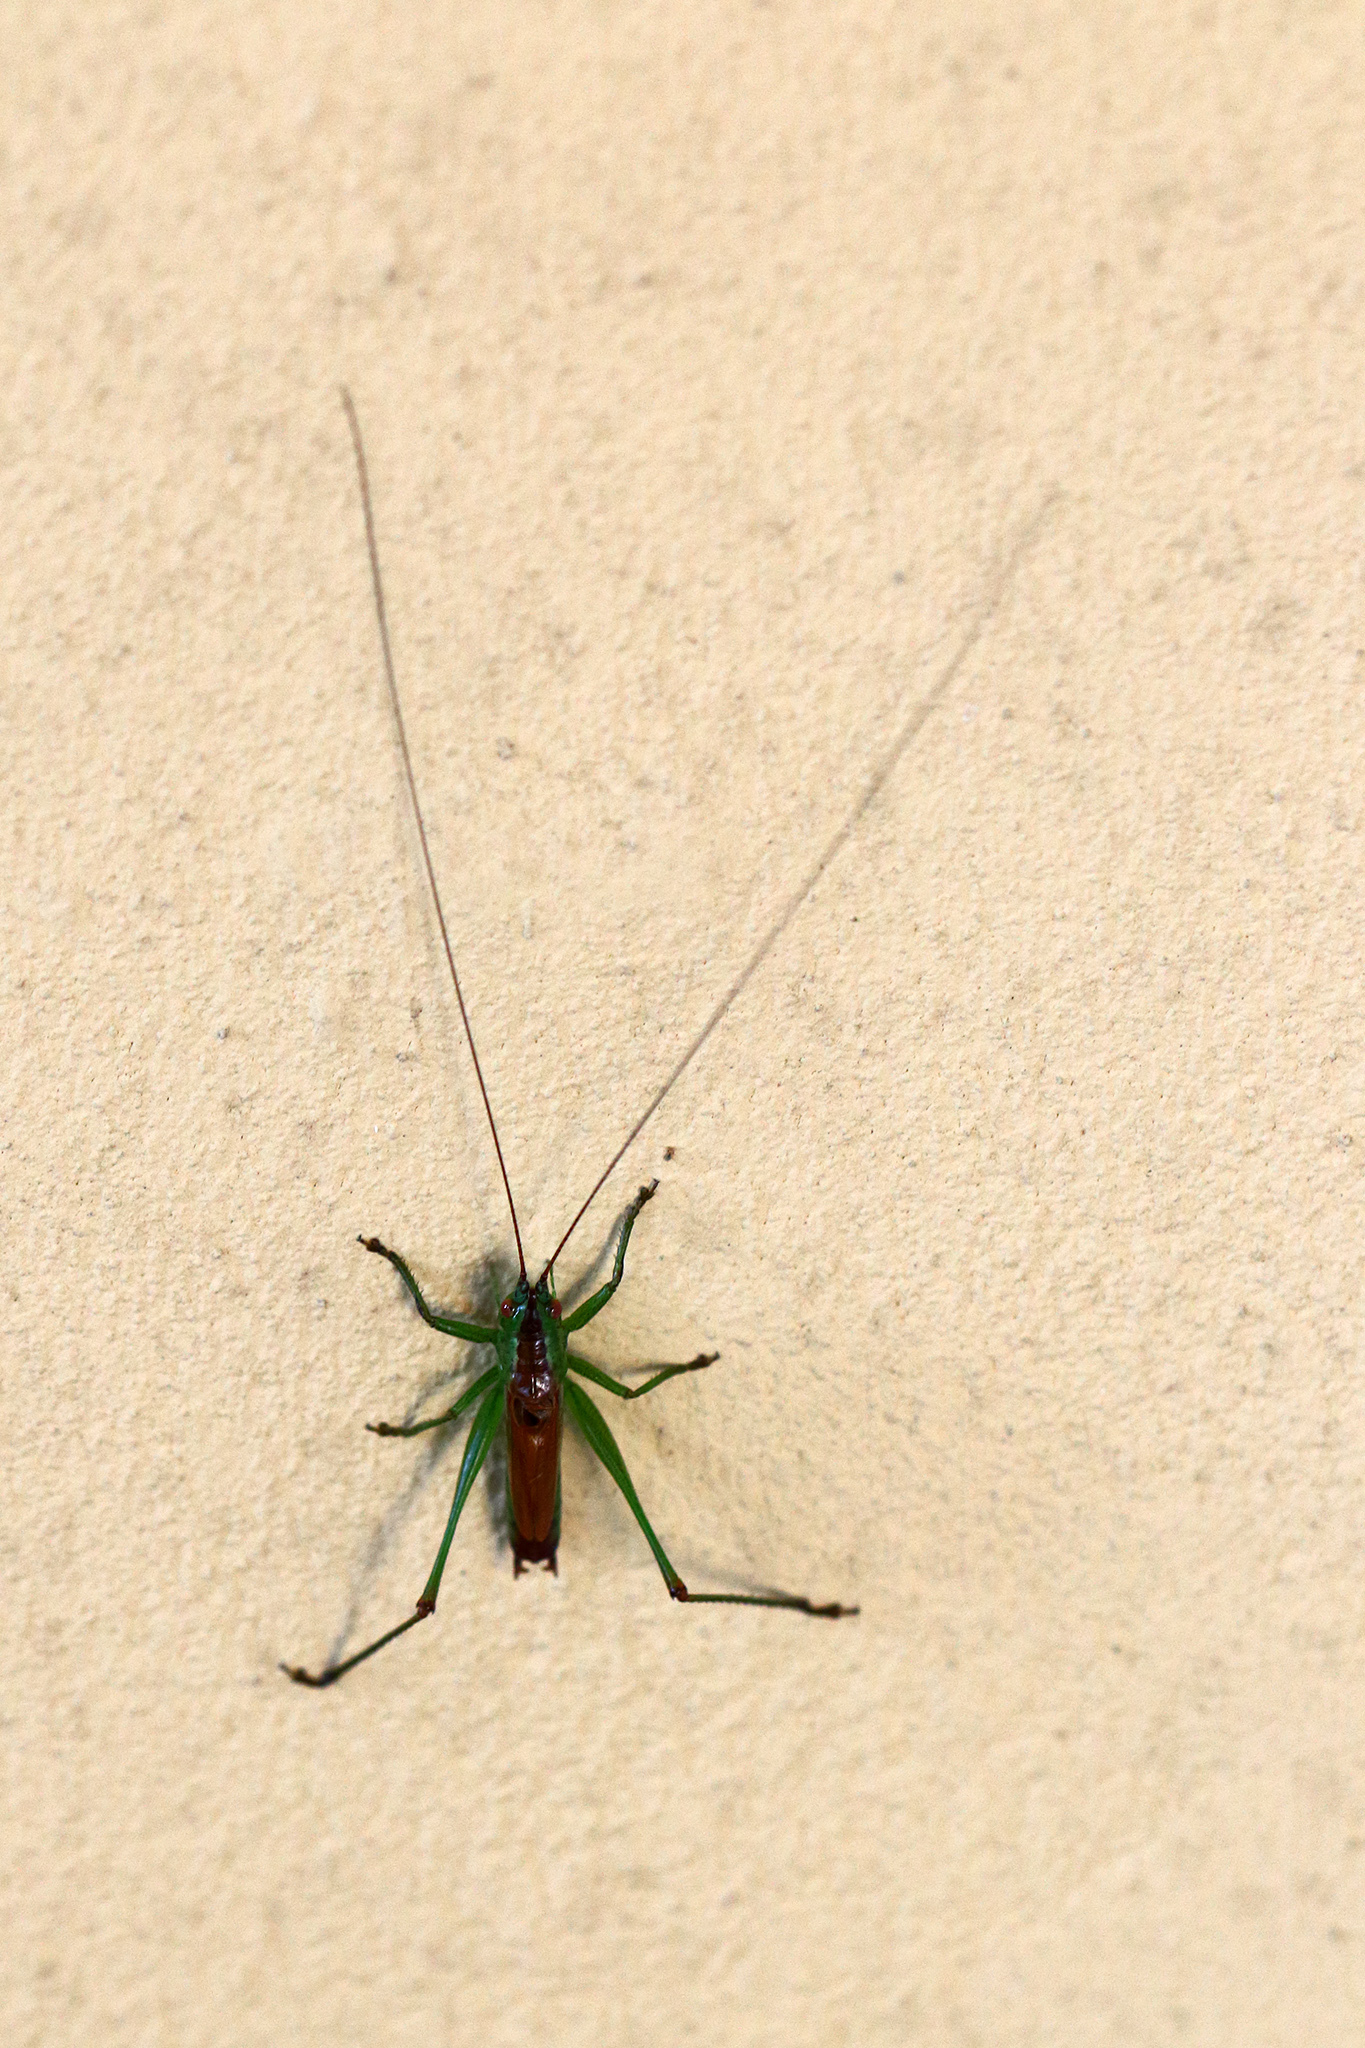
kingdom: Animalia
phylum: Arthropoda
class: Insecta
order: Orthoptera
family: Tettigoniidae
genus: Conocephalus
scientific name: Conocephalus dorsalis
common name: Short-winged conehead
